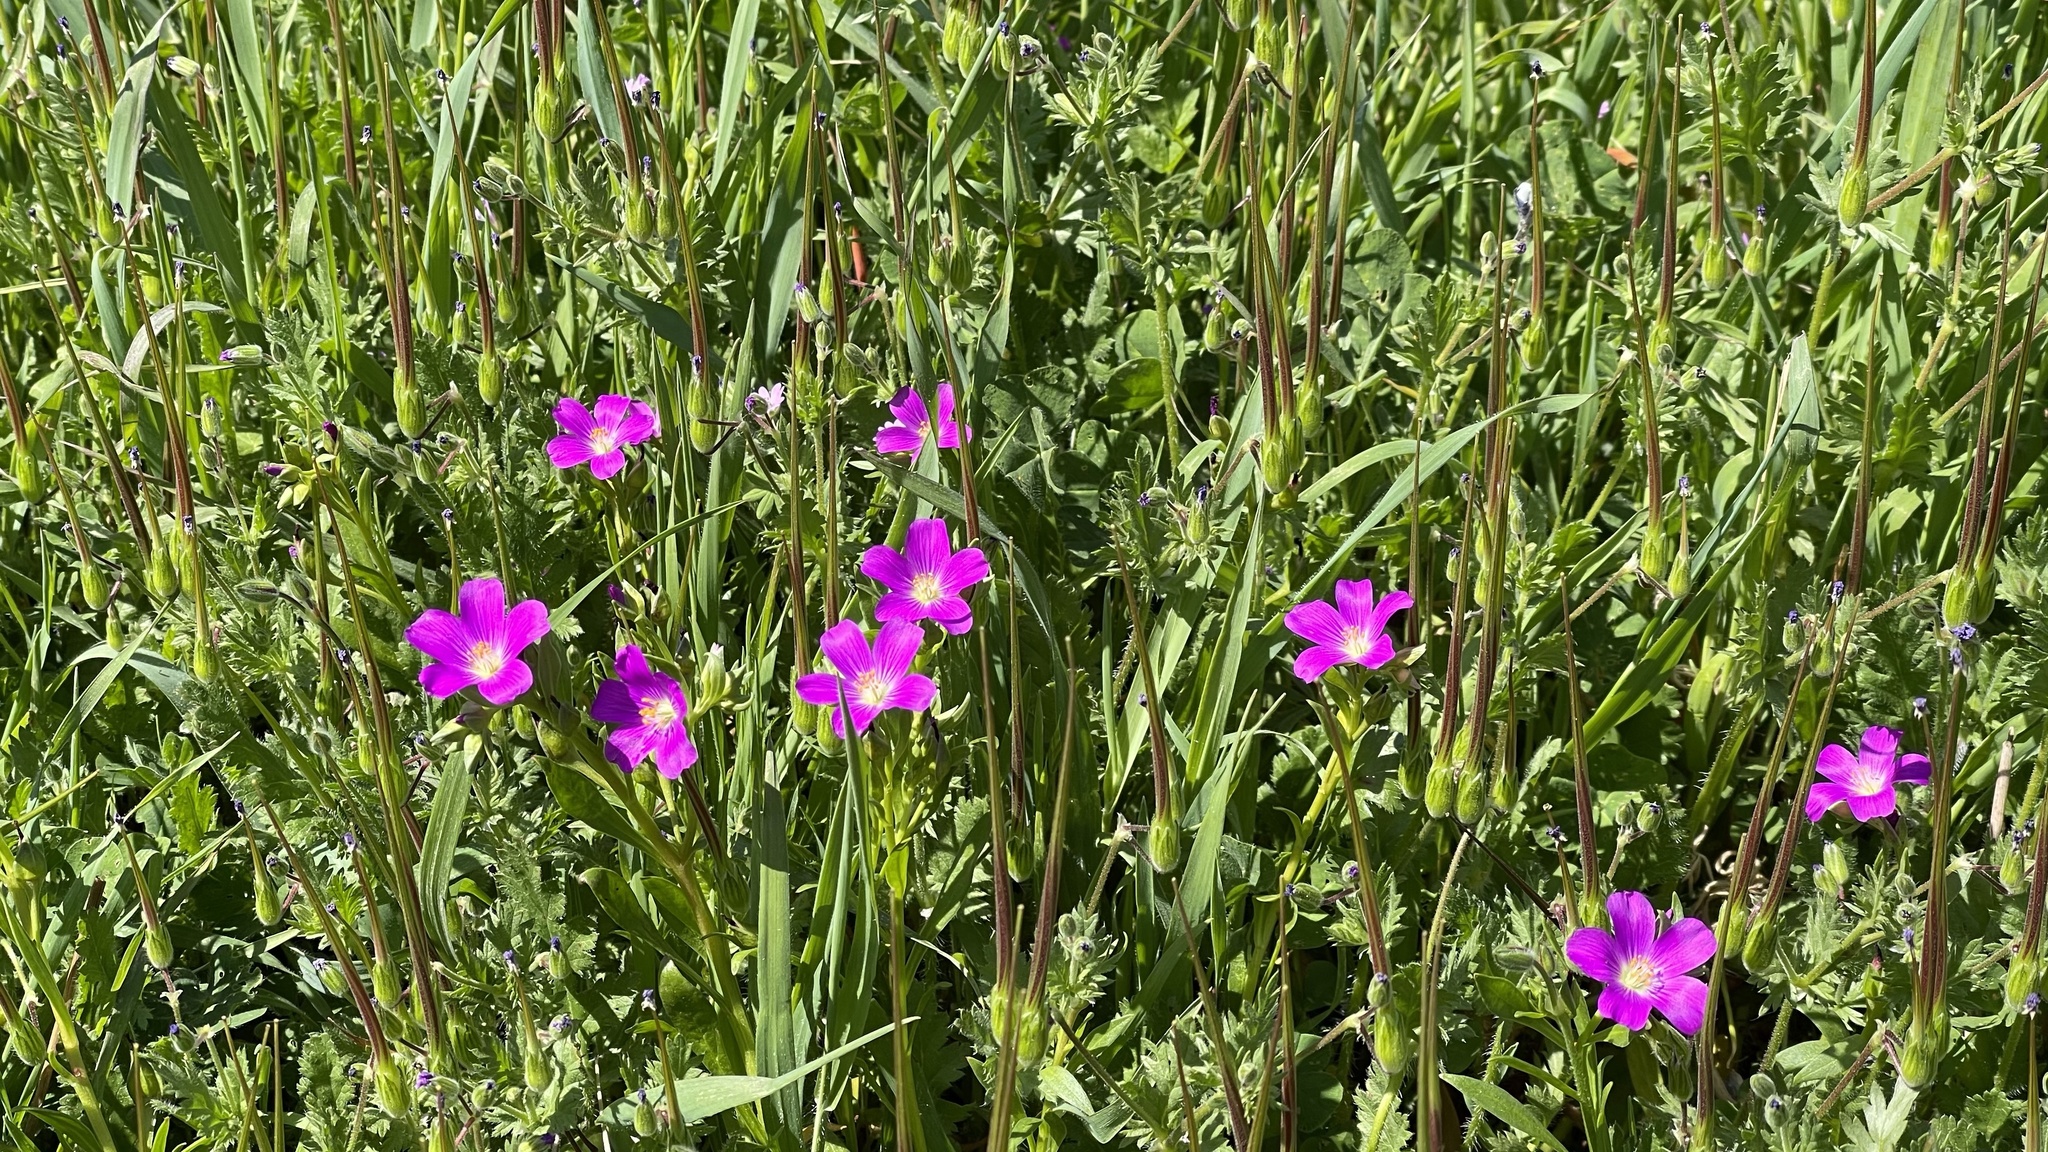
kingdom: Plantae
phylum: Tracheophyta
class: Magnoliopsida
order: Caryophyllales
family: Montiaceae
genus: Calandrinia
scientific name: Calandrinia menziesii
